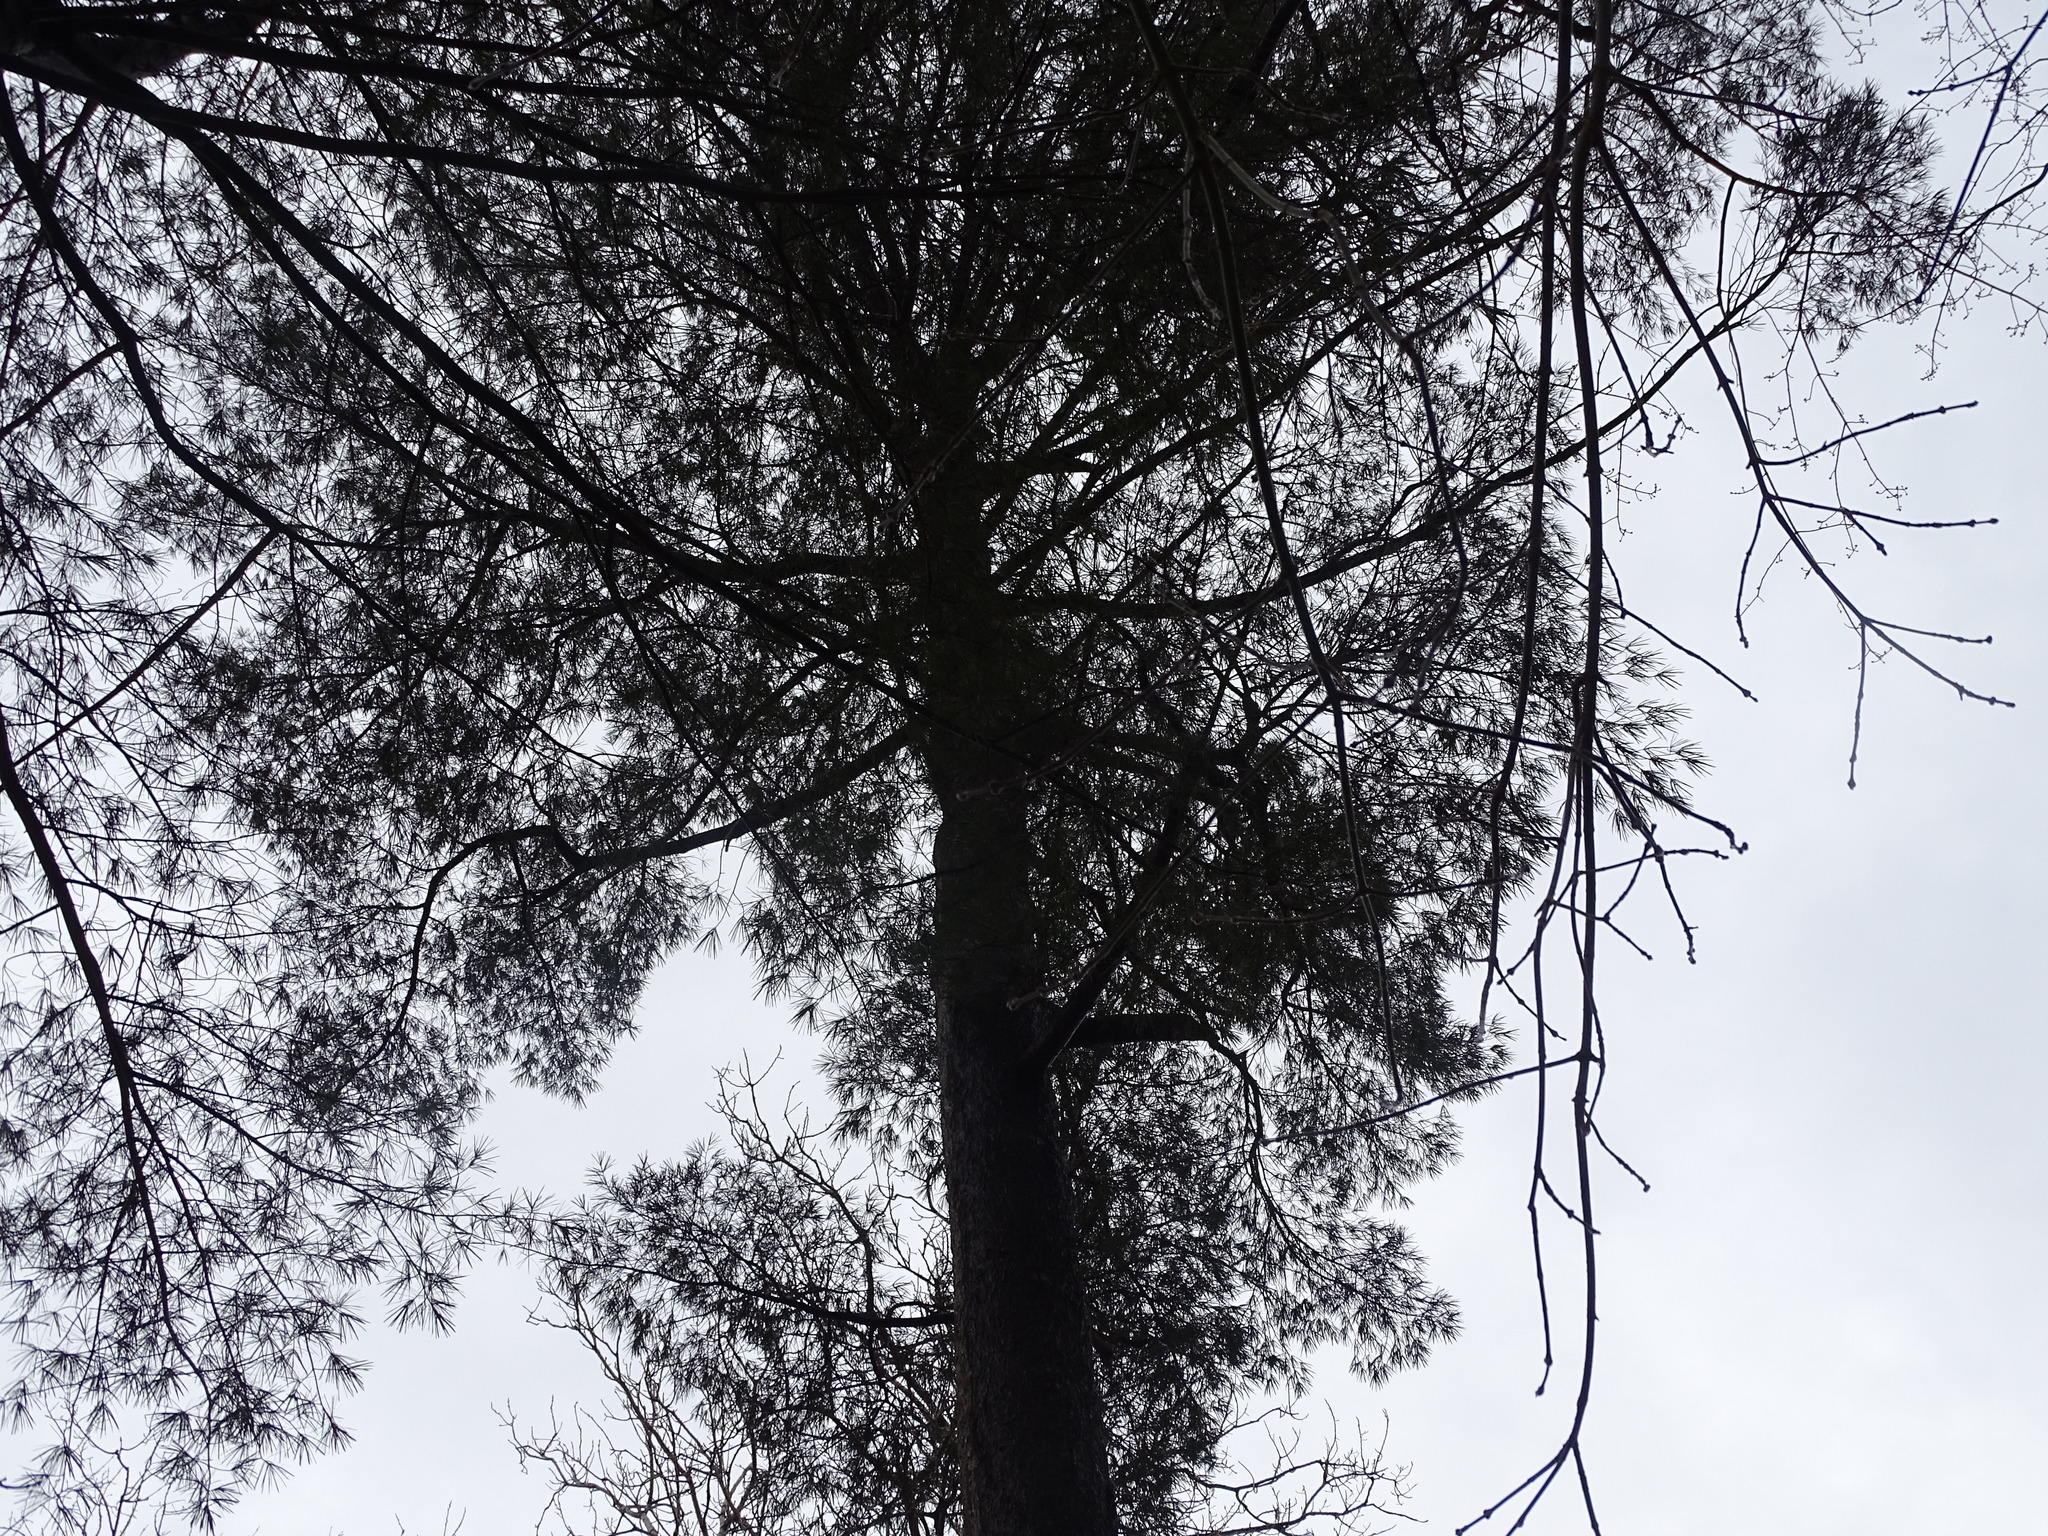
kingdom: Plantae
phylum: Tracheophyta
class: Pinopsida
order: Pinales
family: Pinaceae
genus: Pinus
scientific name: Pinus strobus
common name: Weymouth pine
